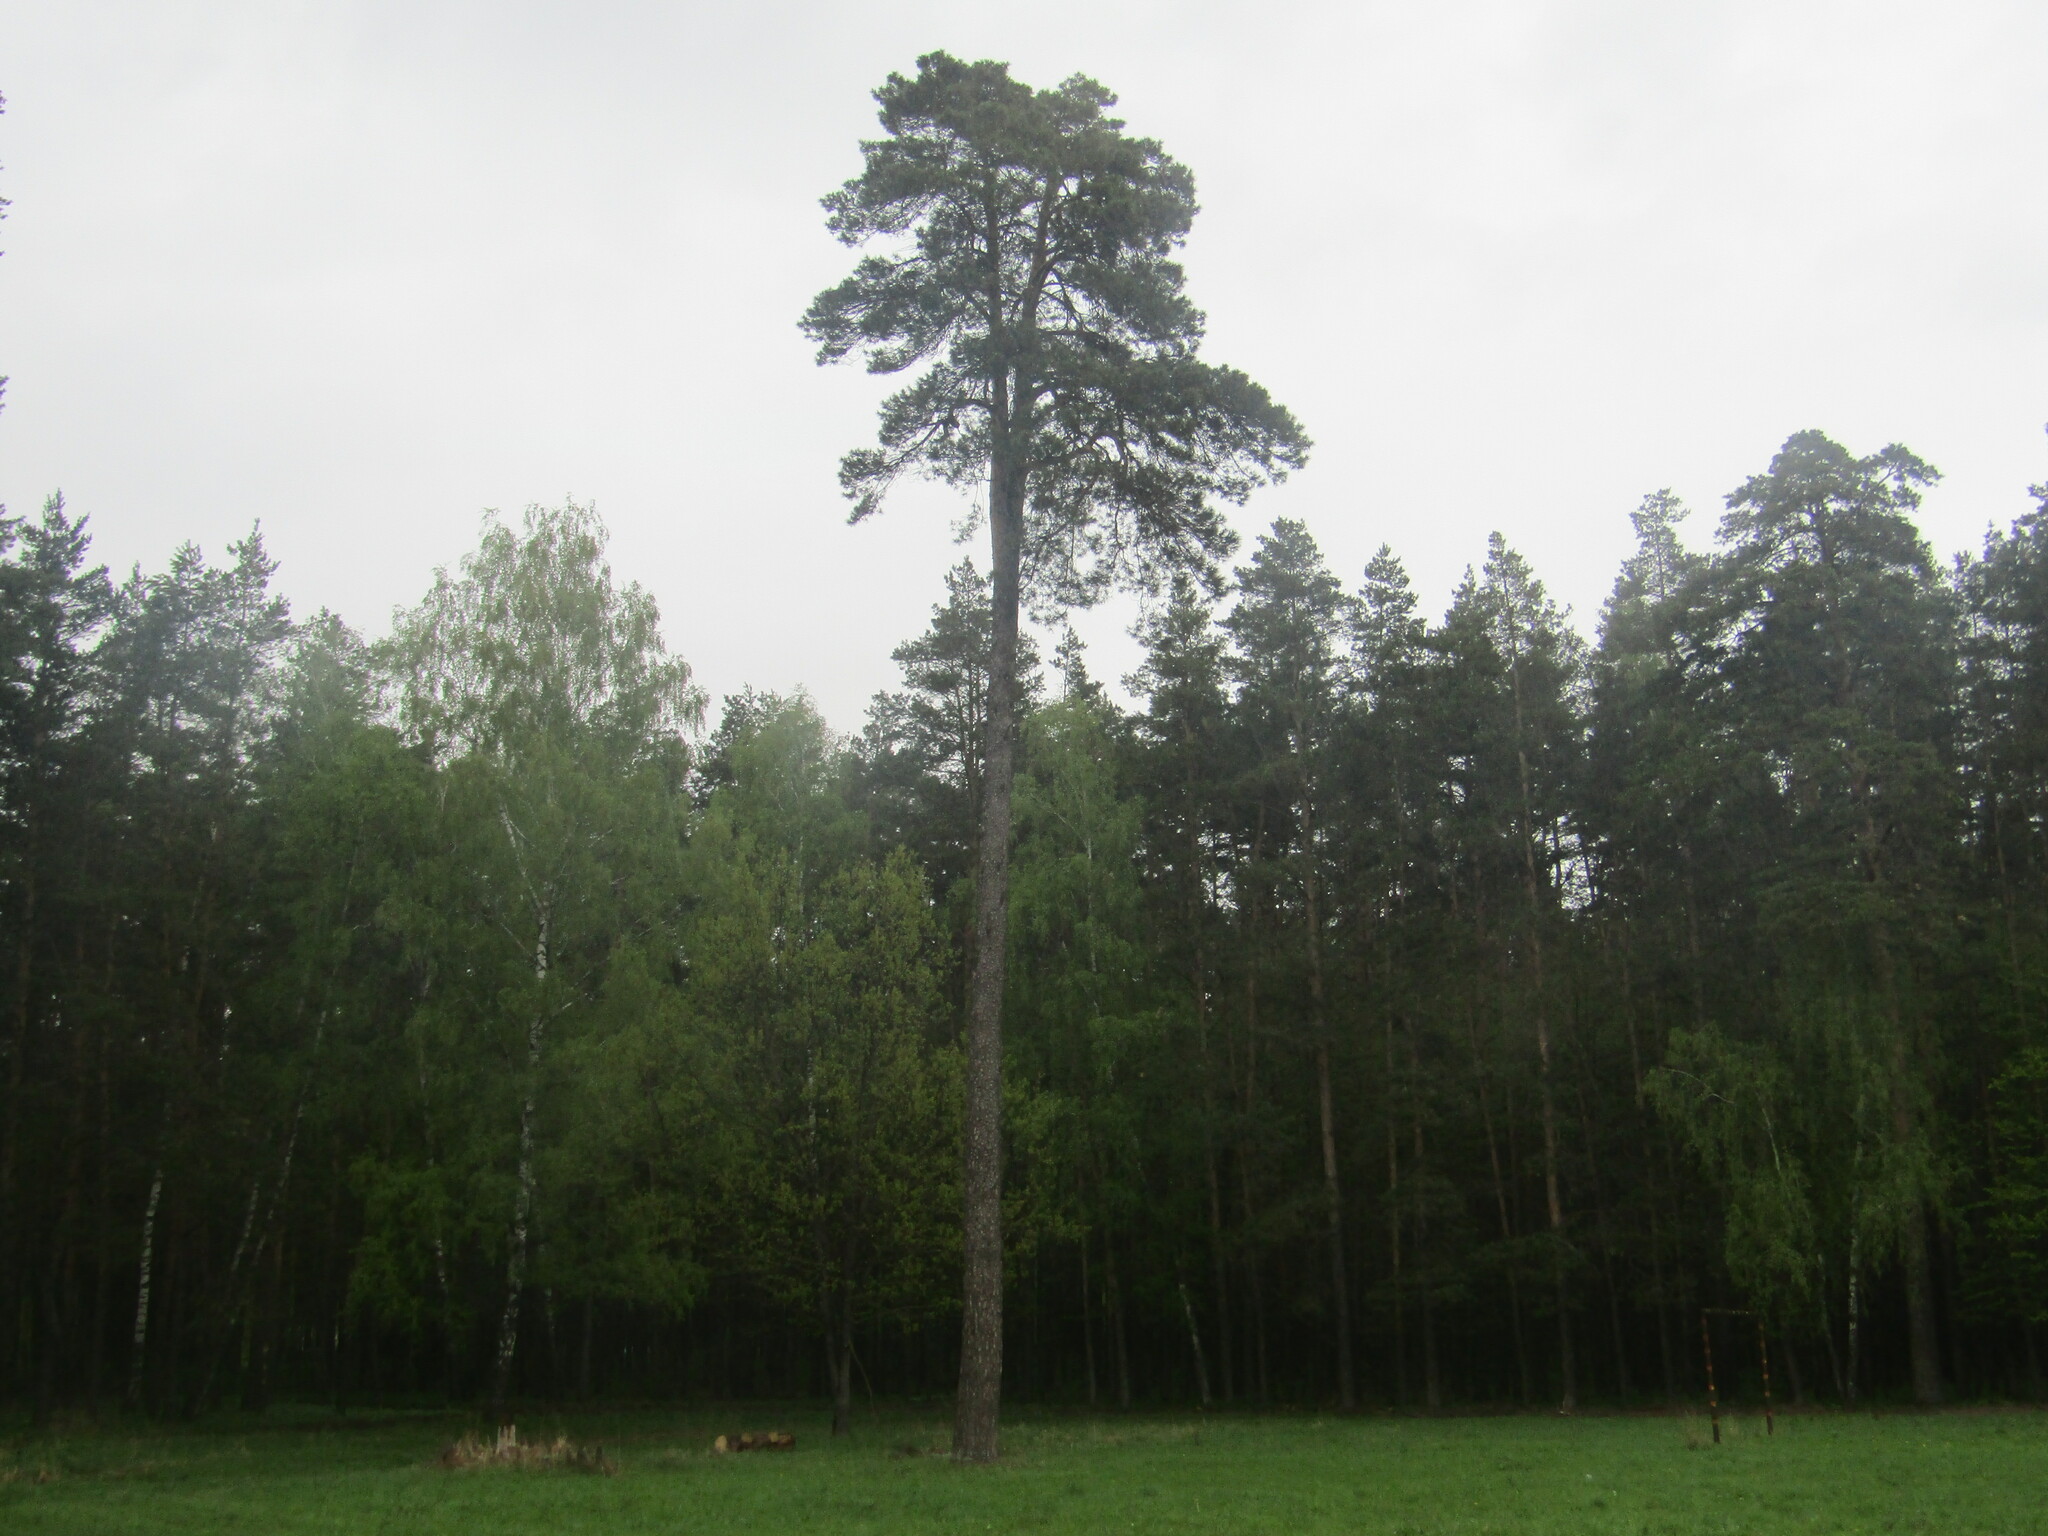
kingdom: Plantae
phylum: Tracheophyta
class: Pinopsida
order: Pinales
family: Pinaceae
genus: Pinus
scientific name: Pinus sylvestris
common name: Scots pine
